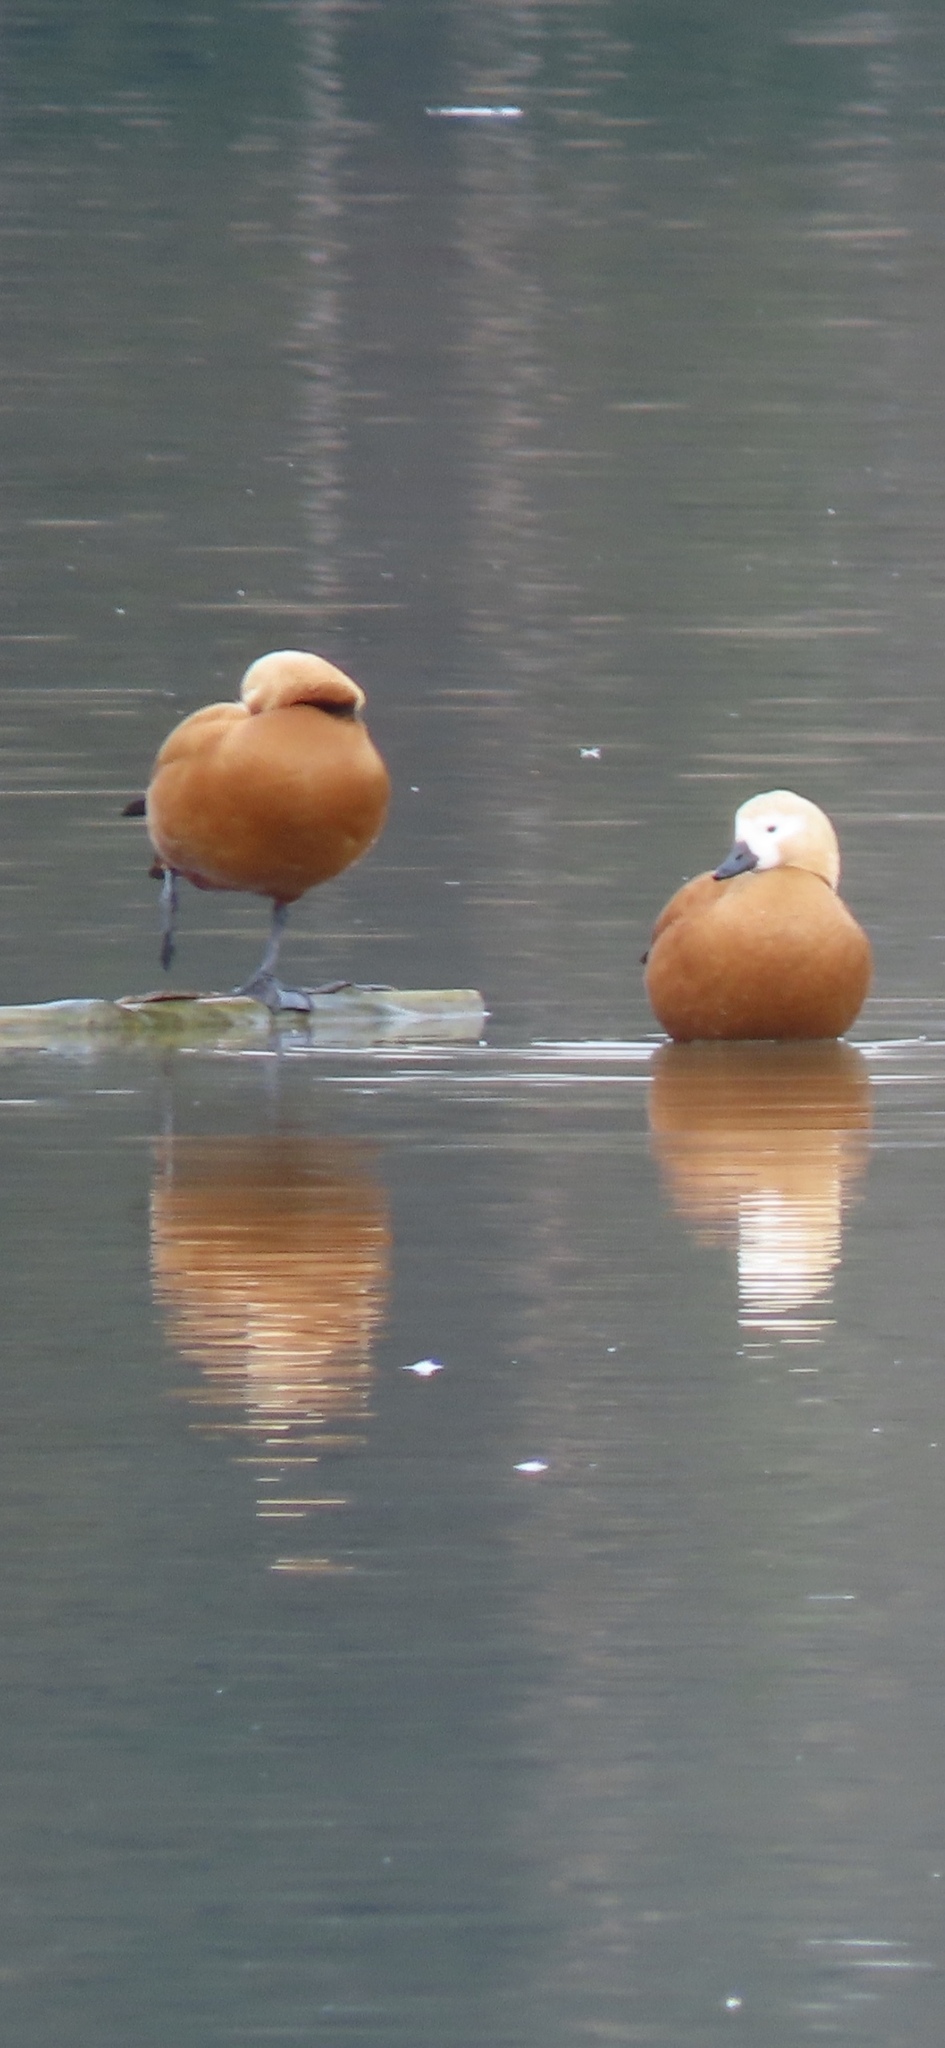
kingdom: Animalia
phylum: Chordata
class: Aves
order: Anseriformes
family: Anatidae
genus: Tadorna
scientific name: Tadorna ferruginea
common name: Ruddy shelduck
